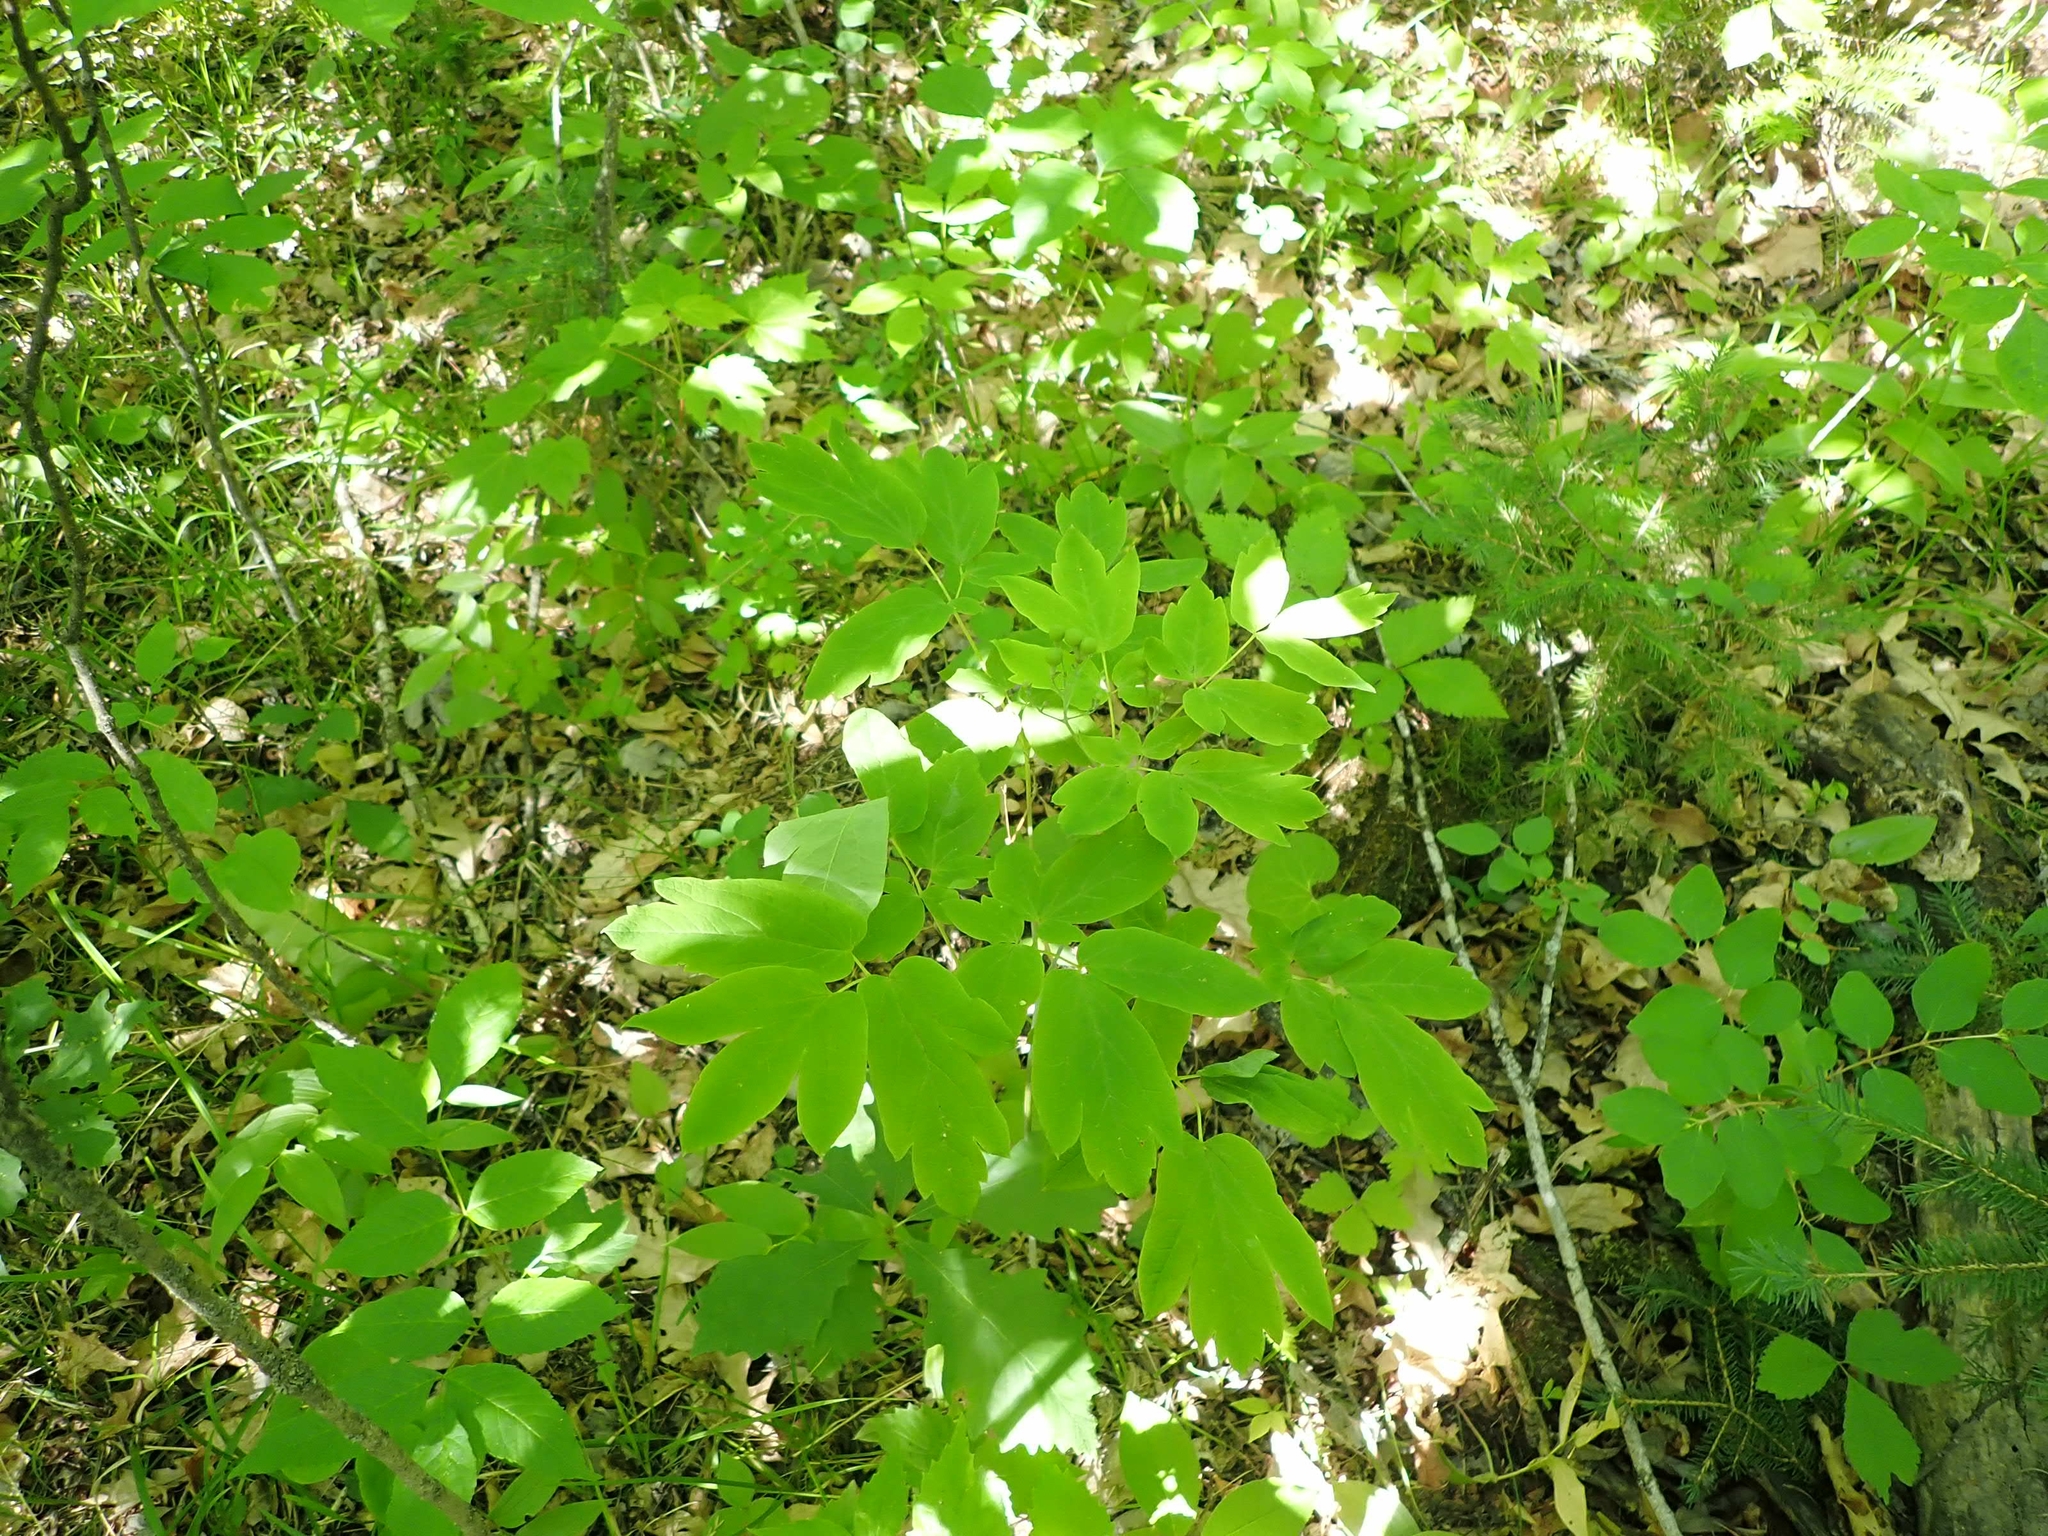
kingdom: Plantae
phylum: Tracheophyta
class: Magnoliopsida
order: Ranunculales
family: Berberidaceae
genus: Caulophyllum
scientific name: Caulophyllum thalictroides
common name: Blue cohosh
